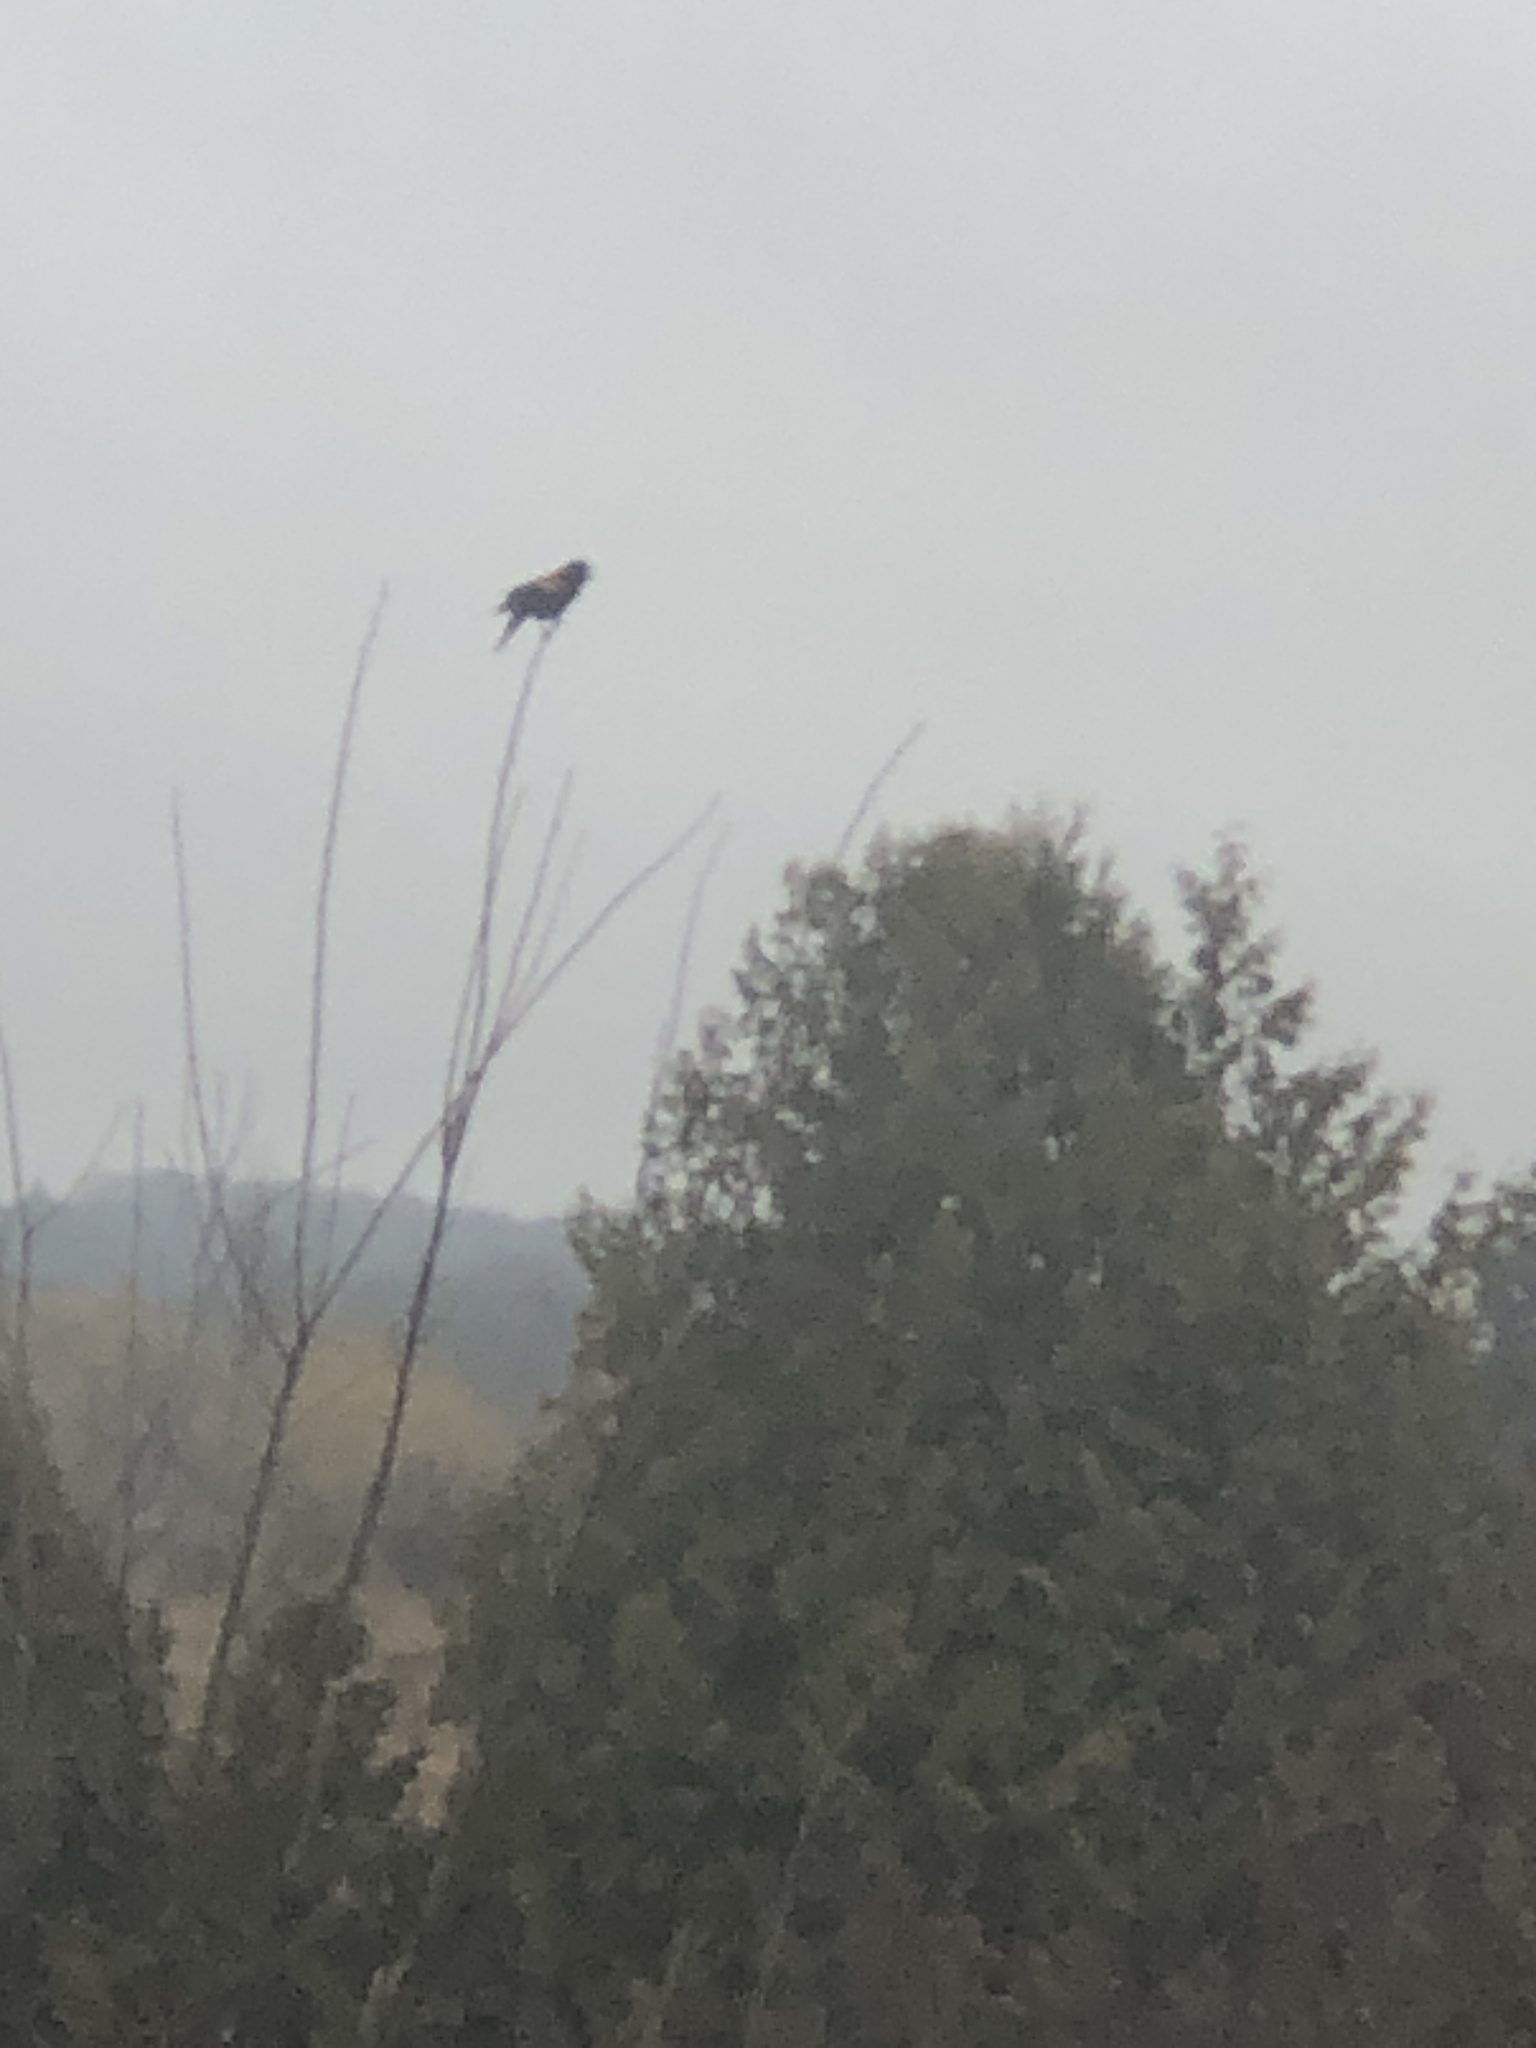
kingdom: Animalia
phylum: Chordata
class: Aves
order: Passeriformes
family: Icteridae
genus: Agelaius
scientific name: Agelaius phoeniceus
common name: Red-winged blackbird
